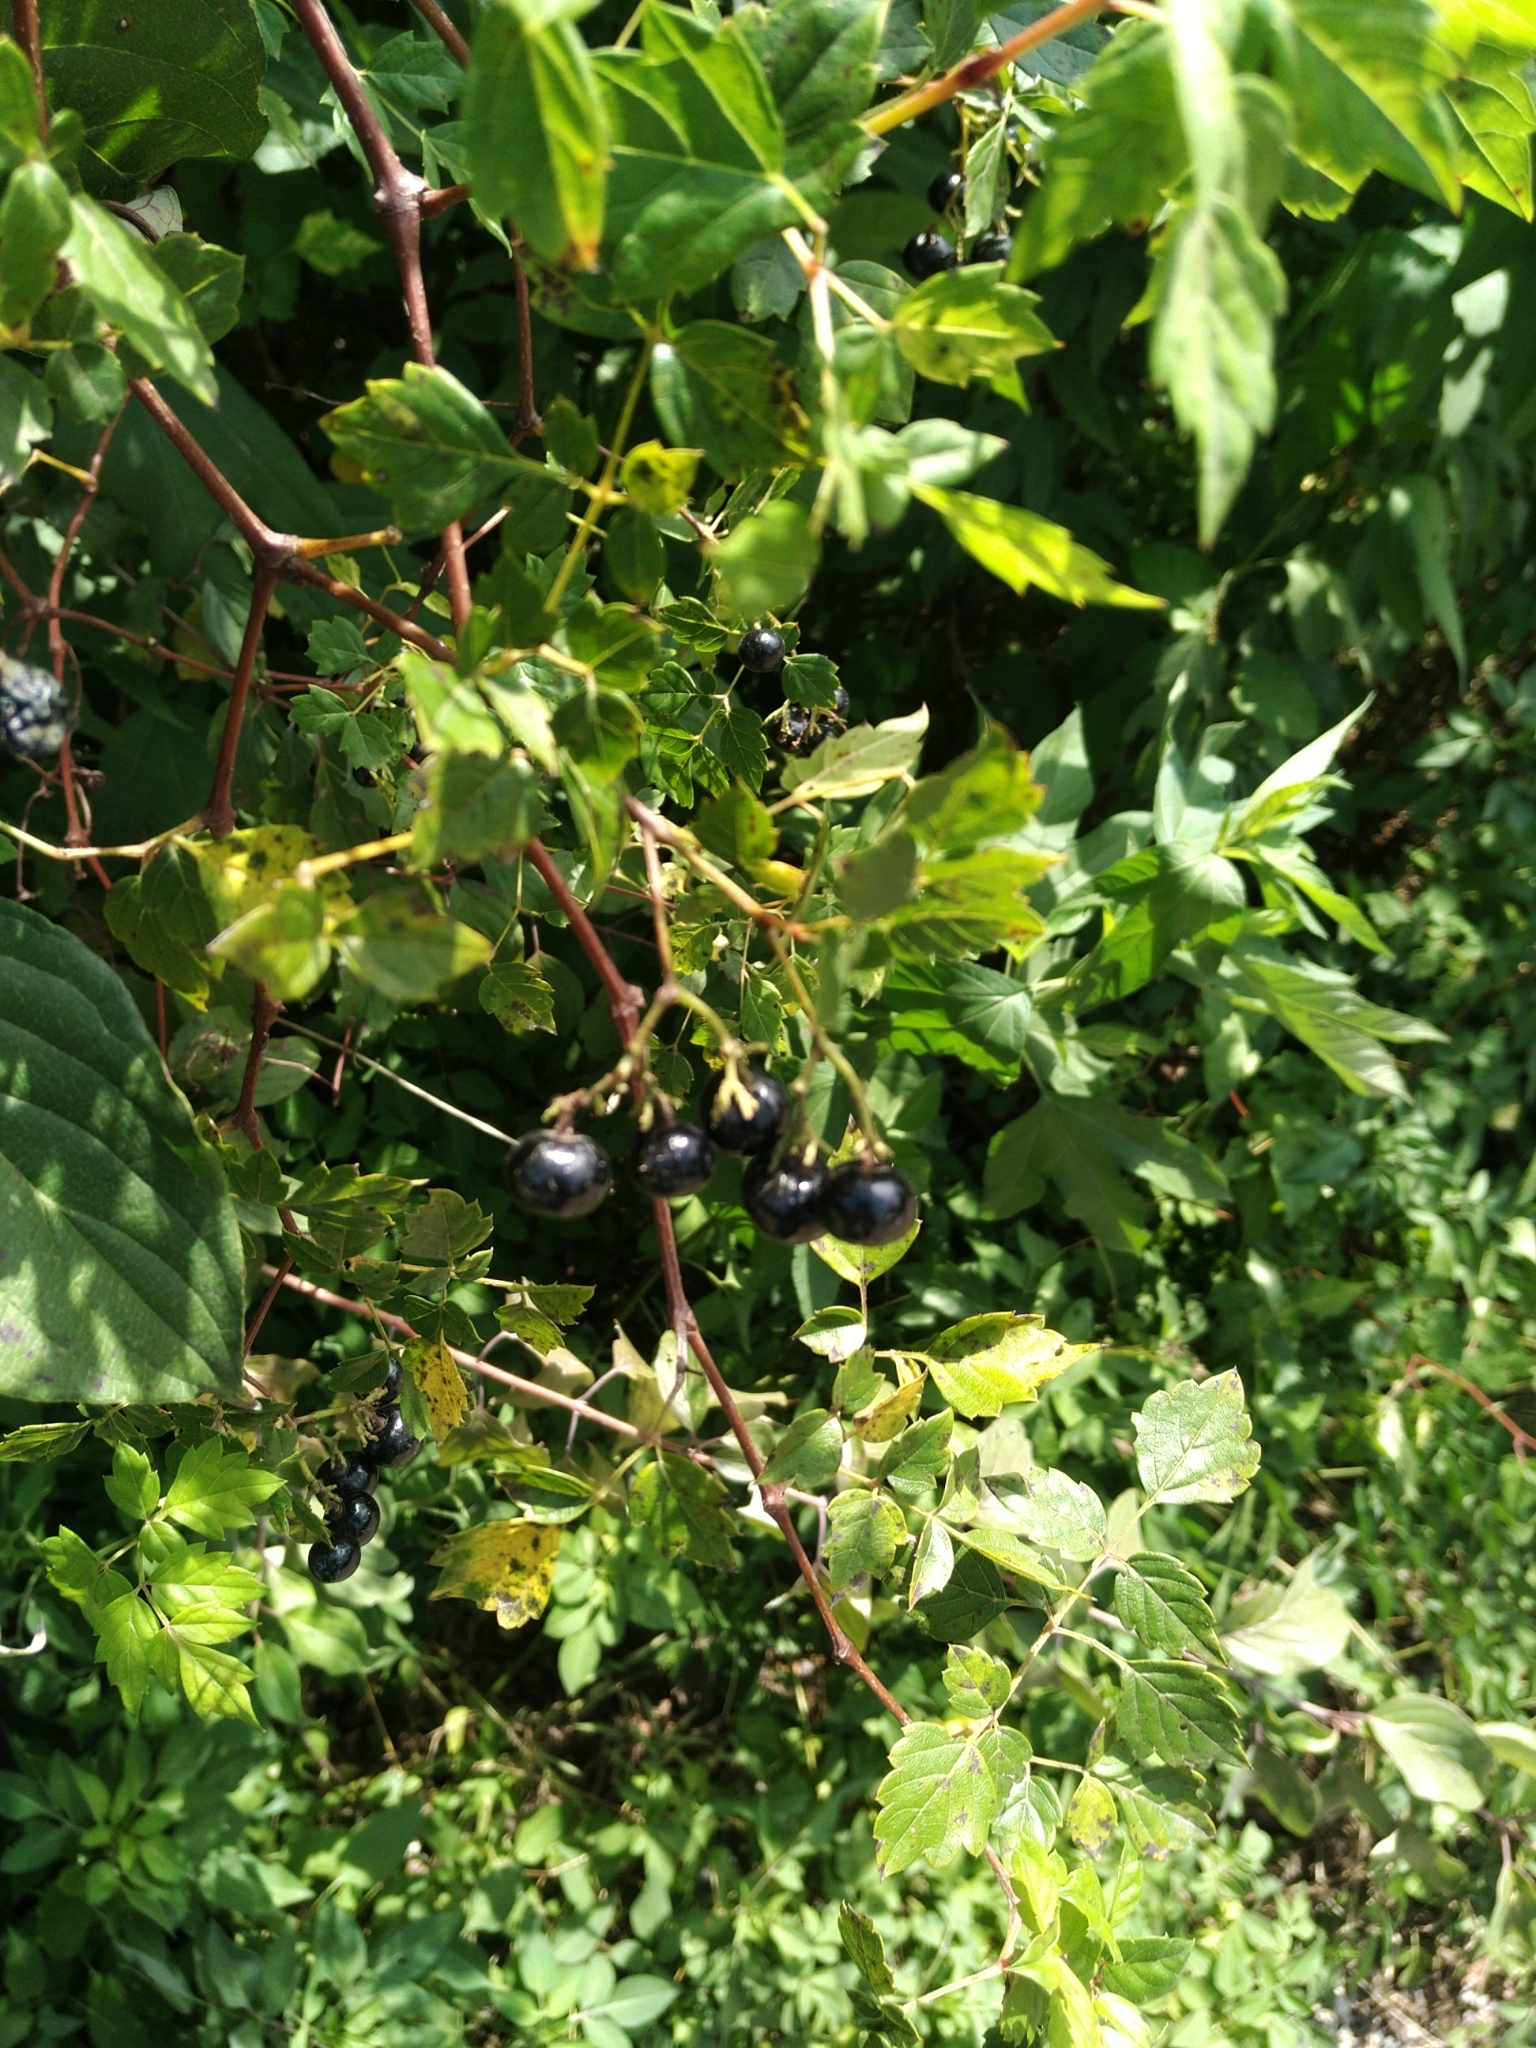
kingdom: Plantae
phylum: Tracheophyta
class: Magnoliopsida
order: Vitales
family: Vitaceae
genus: Nekemias
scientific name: Nekemias arborea
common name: Peppervine
